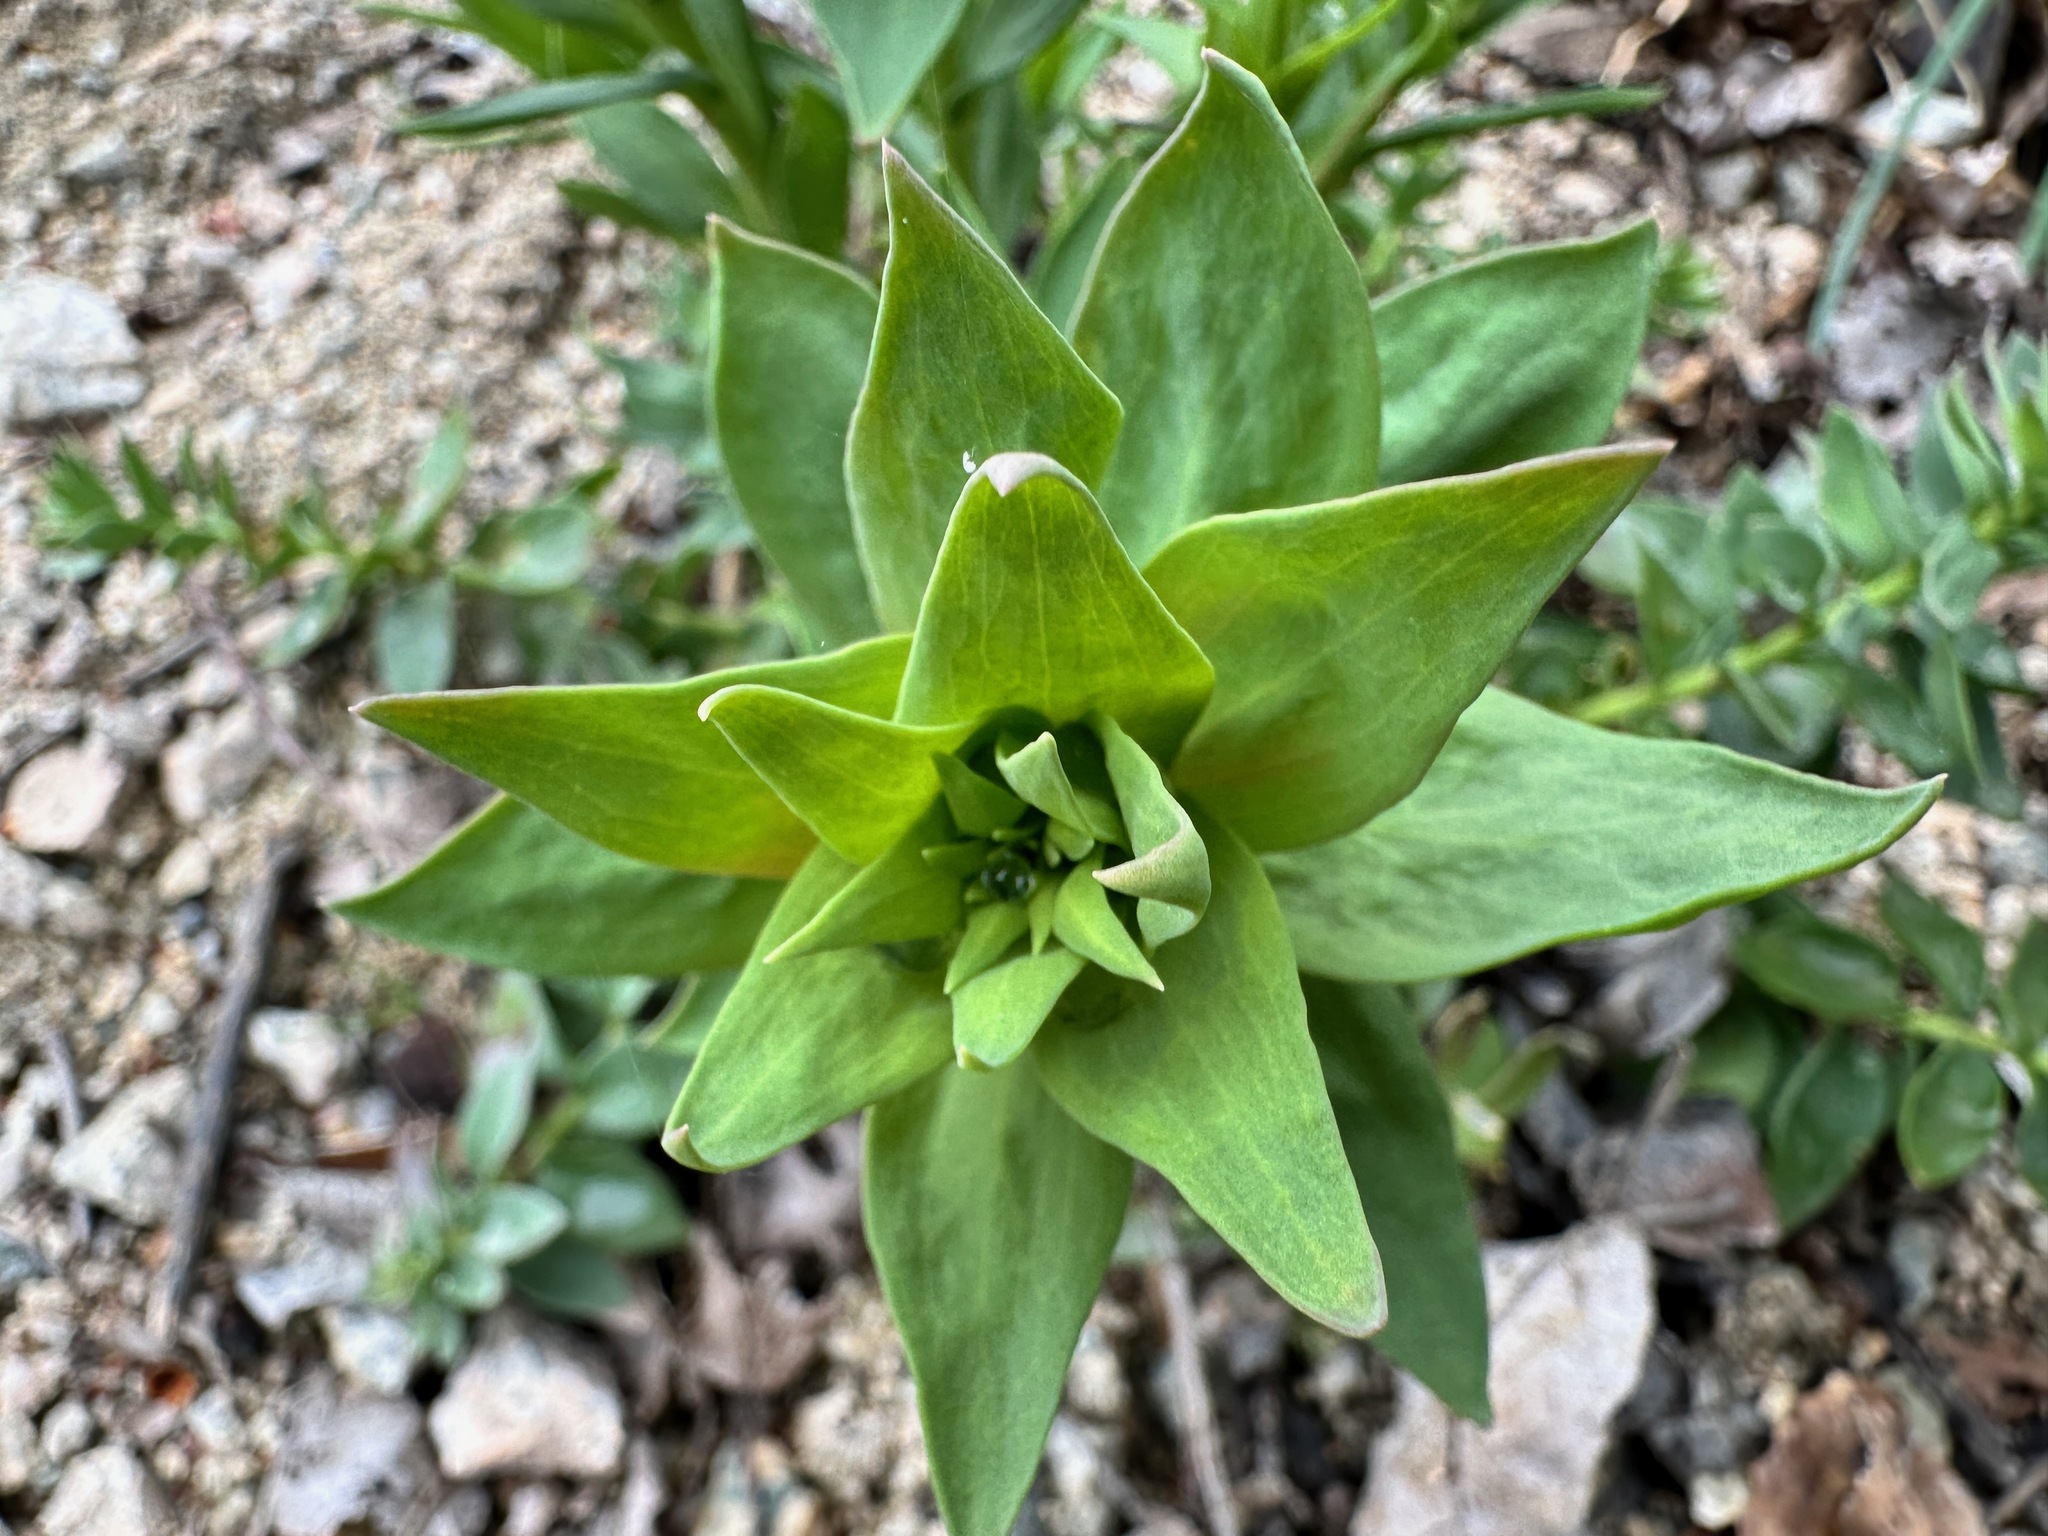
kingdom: Plantae
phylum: Tracheophyta
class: Magnoliopsida
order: Lamiales
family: Plantaginaceae
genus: Linaria
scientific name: Linaria dalmatica
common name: Dalmatian toadflax
